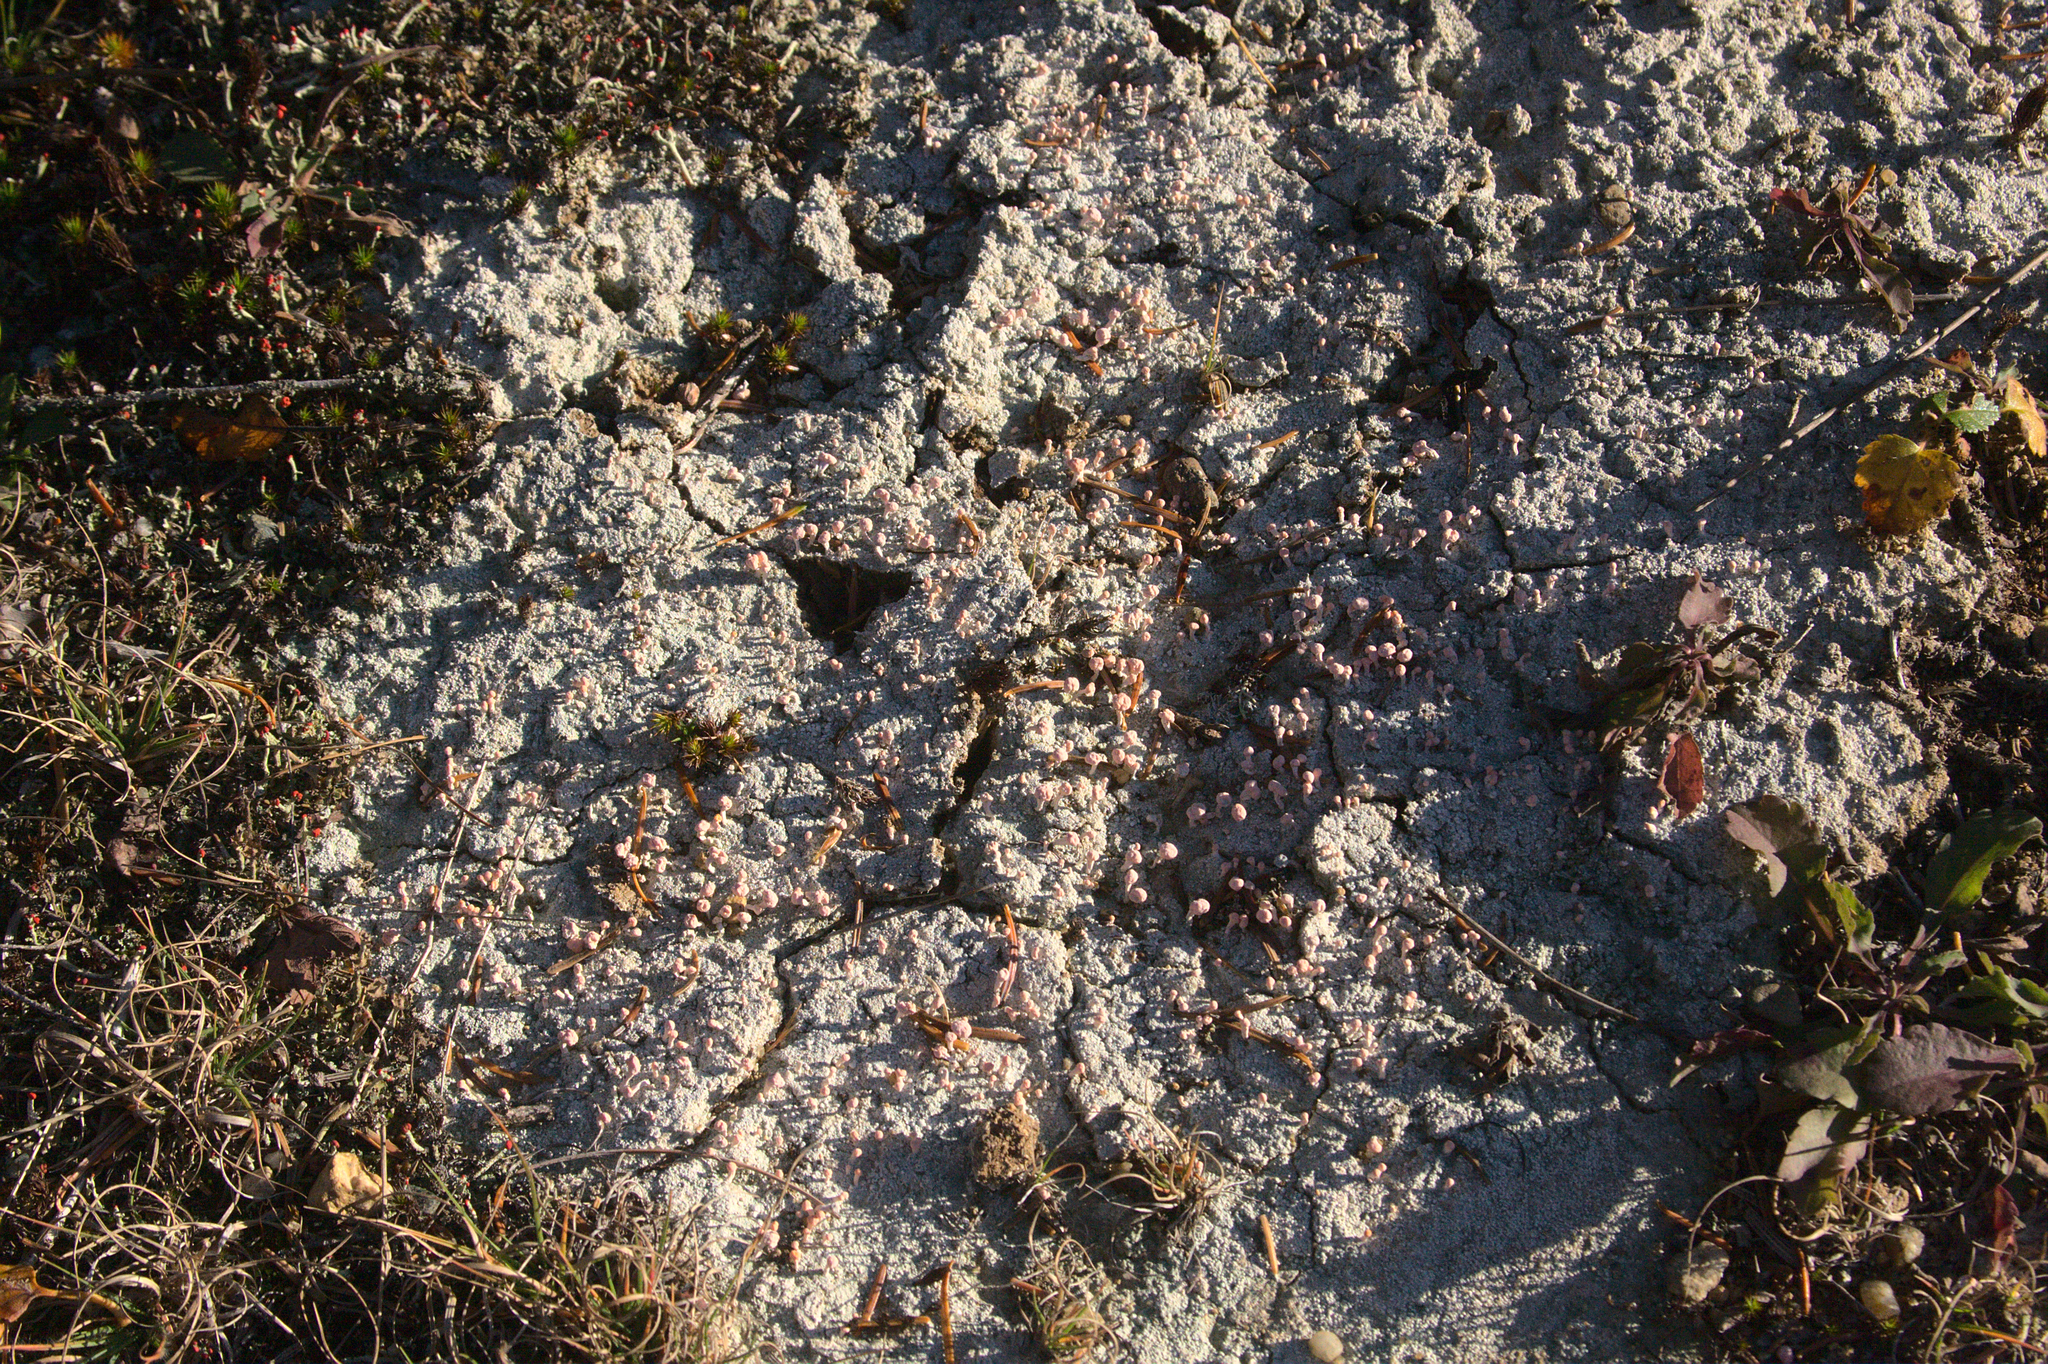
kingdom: Fungi
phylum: Ascomycota
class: Lecanoromycetes
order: Pertusariales
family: Icmadophilaceae
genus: Dibaeis
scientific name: Dibaeis baeomyces
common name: Pink earth lichen
